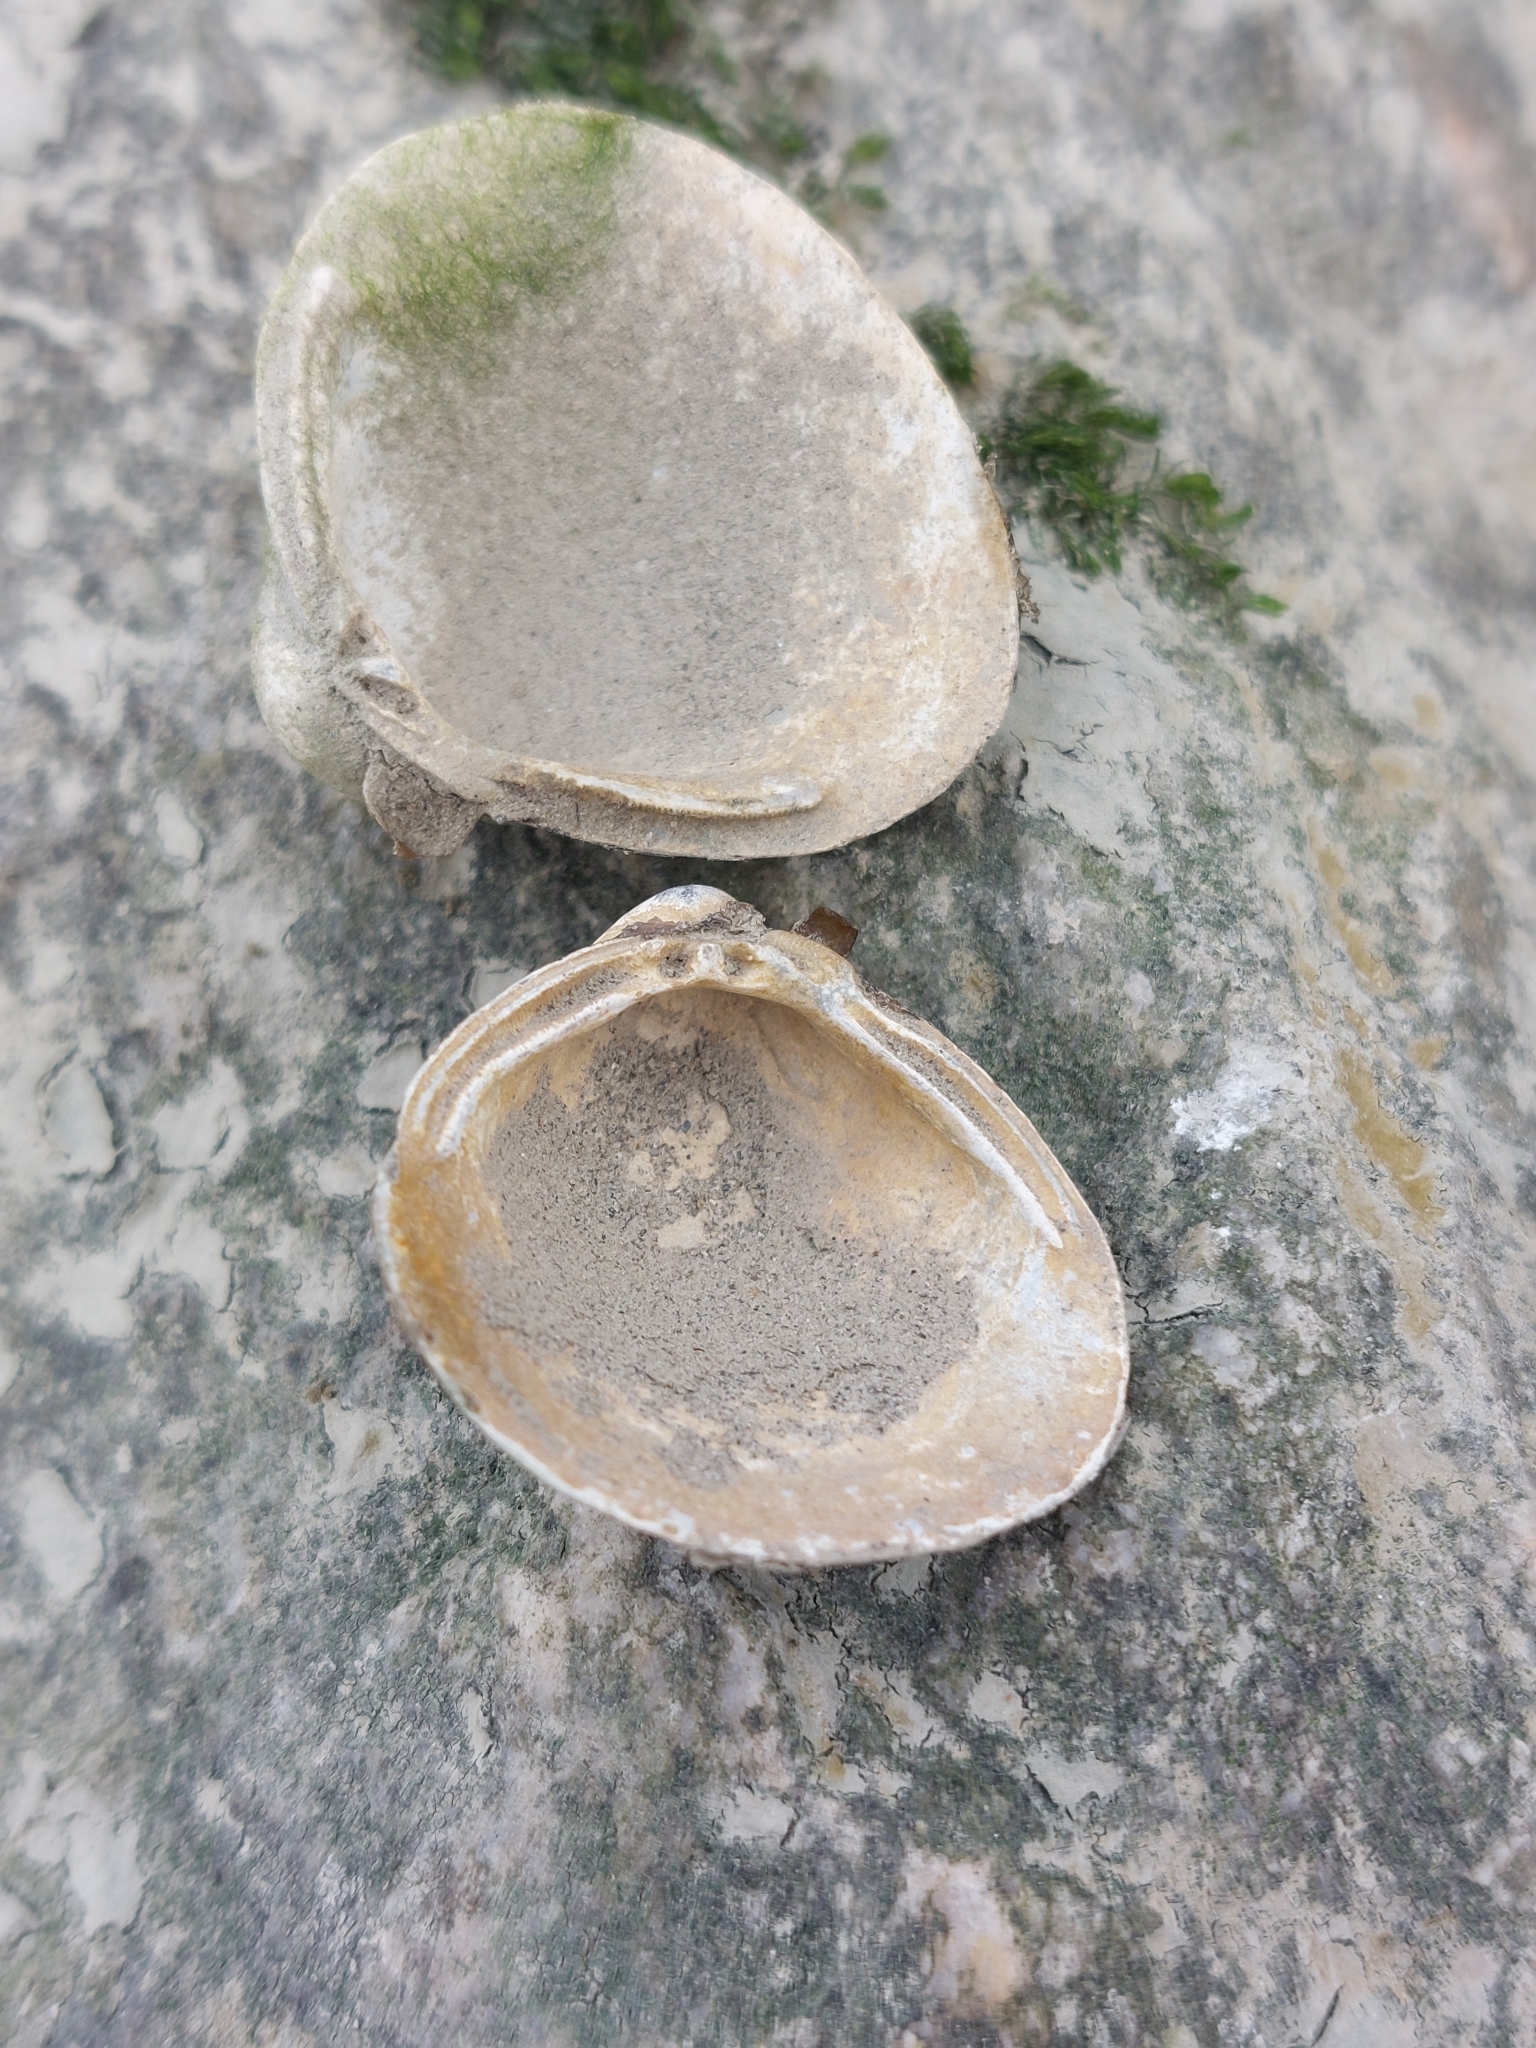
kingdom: Animalia
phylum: Mollusca
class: Bivalvia
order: Venerida
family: Cyrenidae
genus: Corbicula
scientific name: Corbicula fluminea
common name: Asian clam
